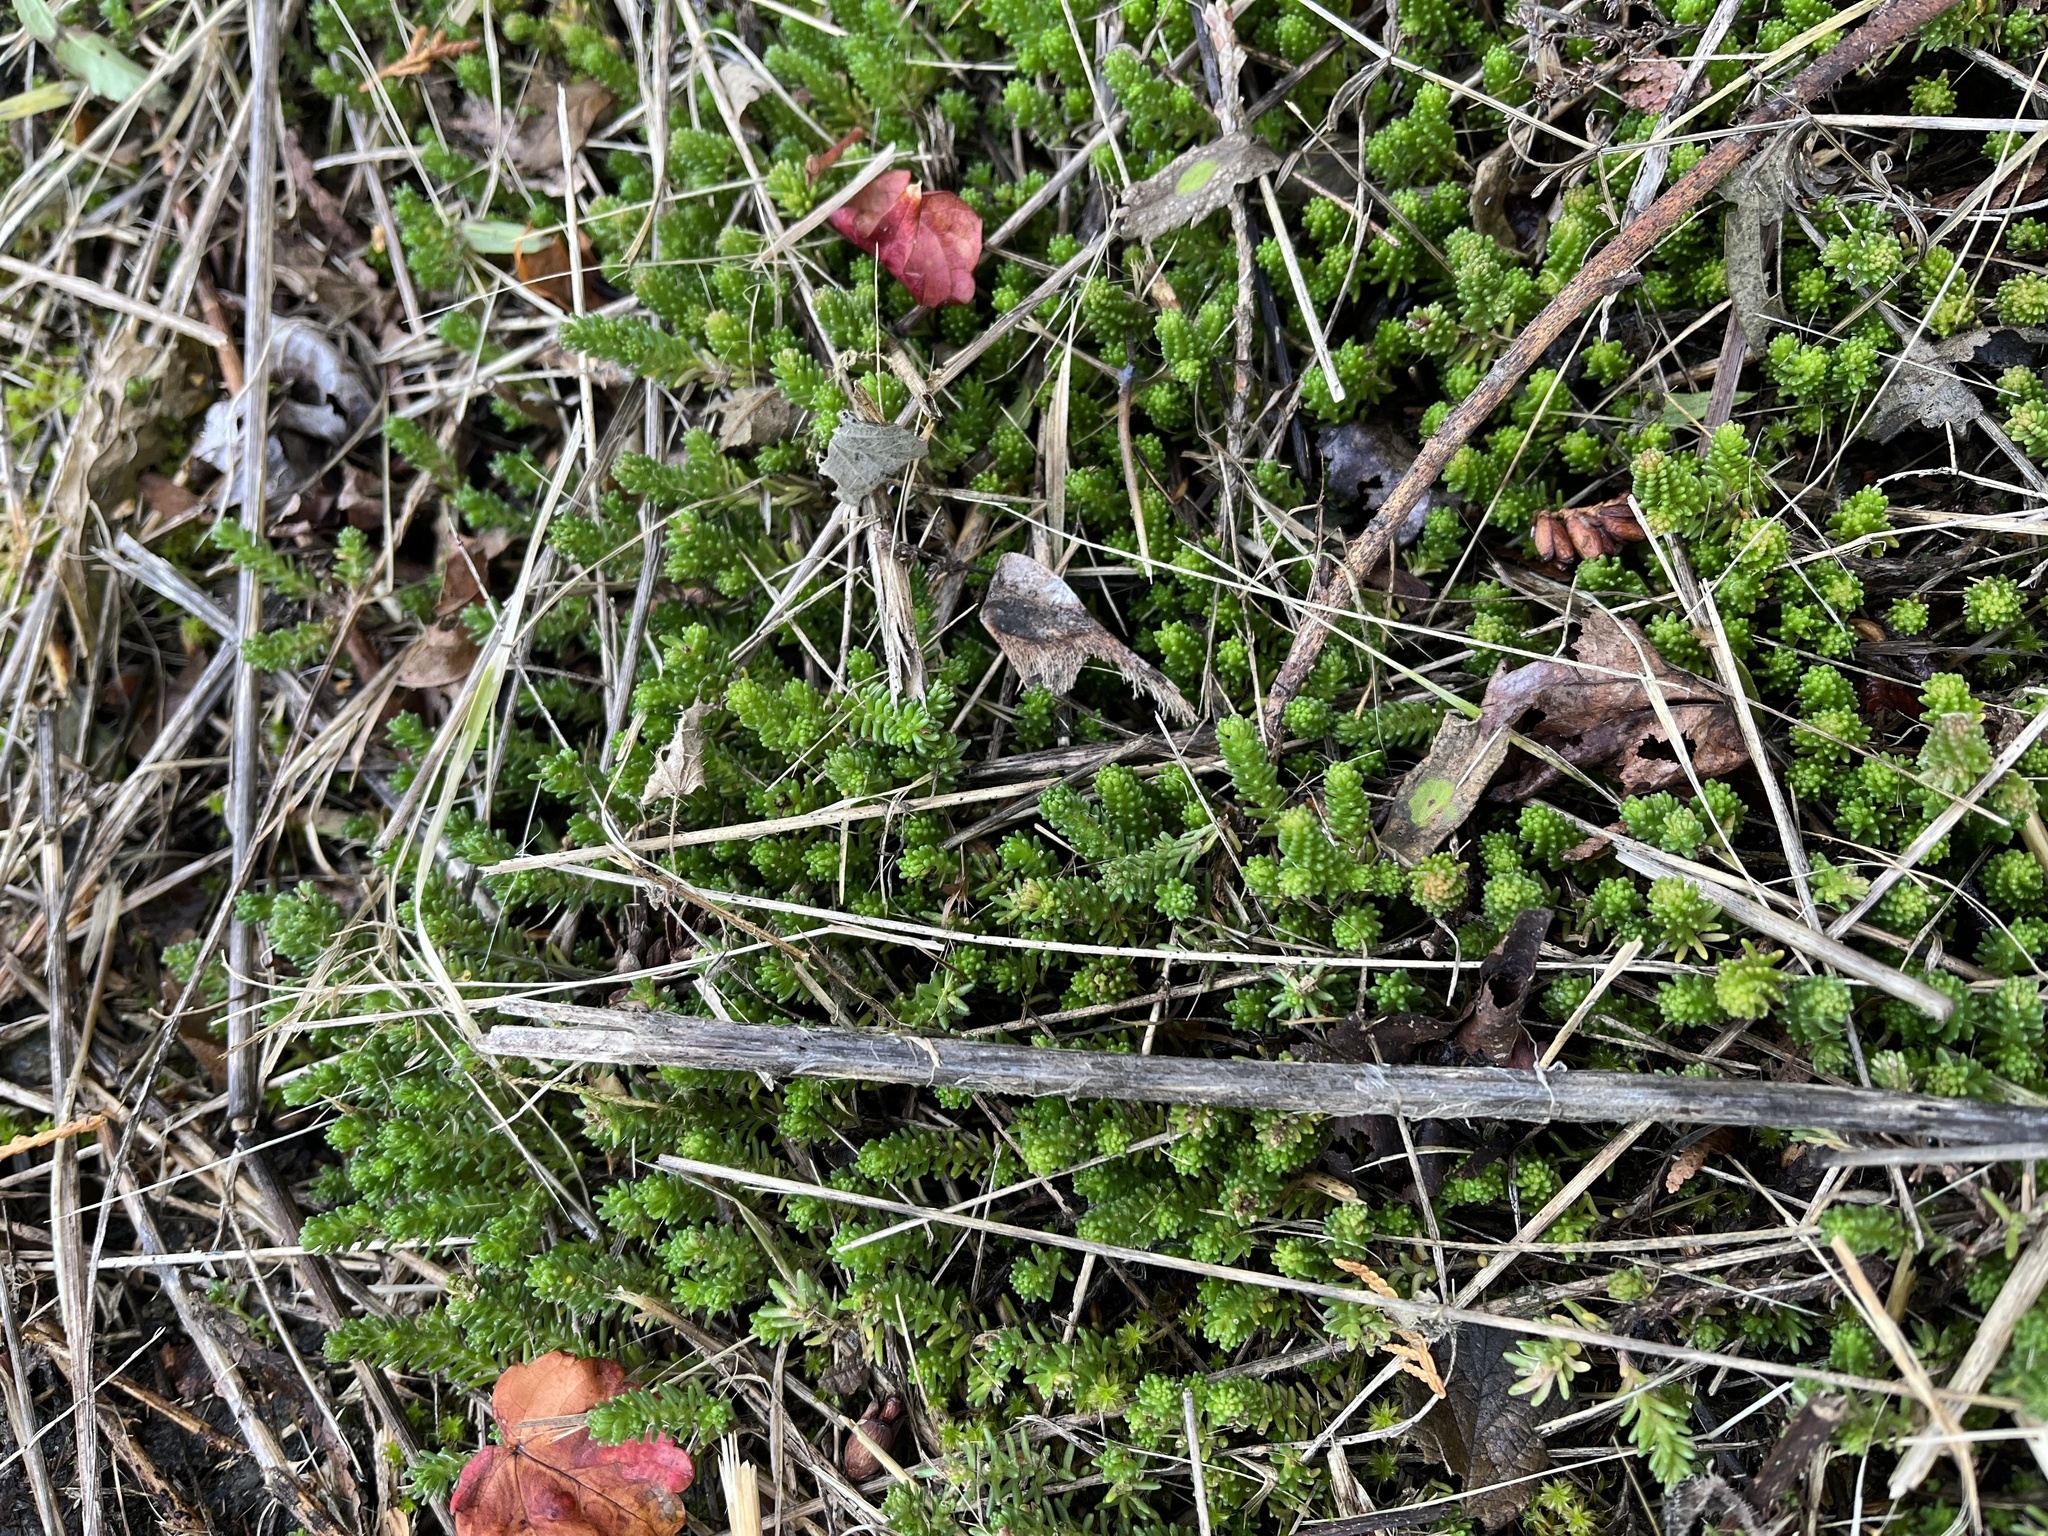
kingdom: Plantae
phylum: Tracheophyta
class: Magnoliopsida
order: Saxifragales
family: Crassulaceae
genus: Sedum
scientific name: Sedum sexangulare
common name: Tasteless stonecrop
